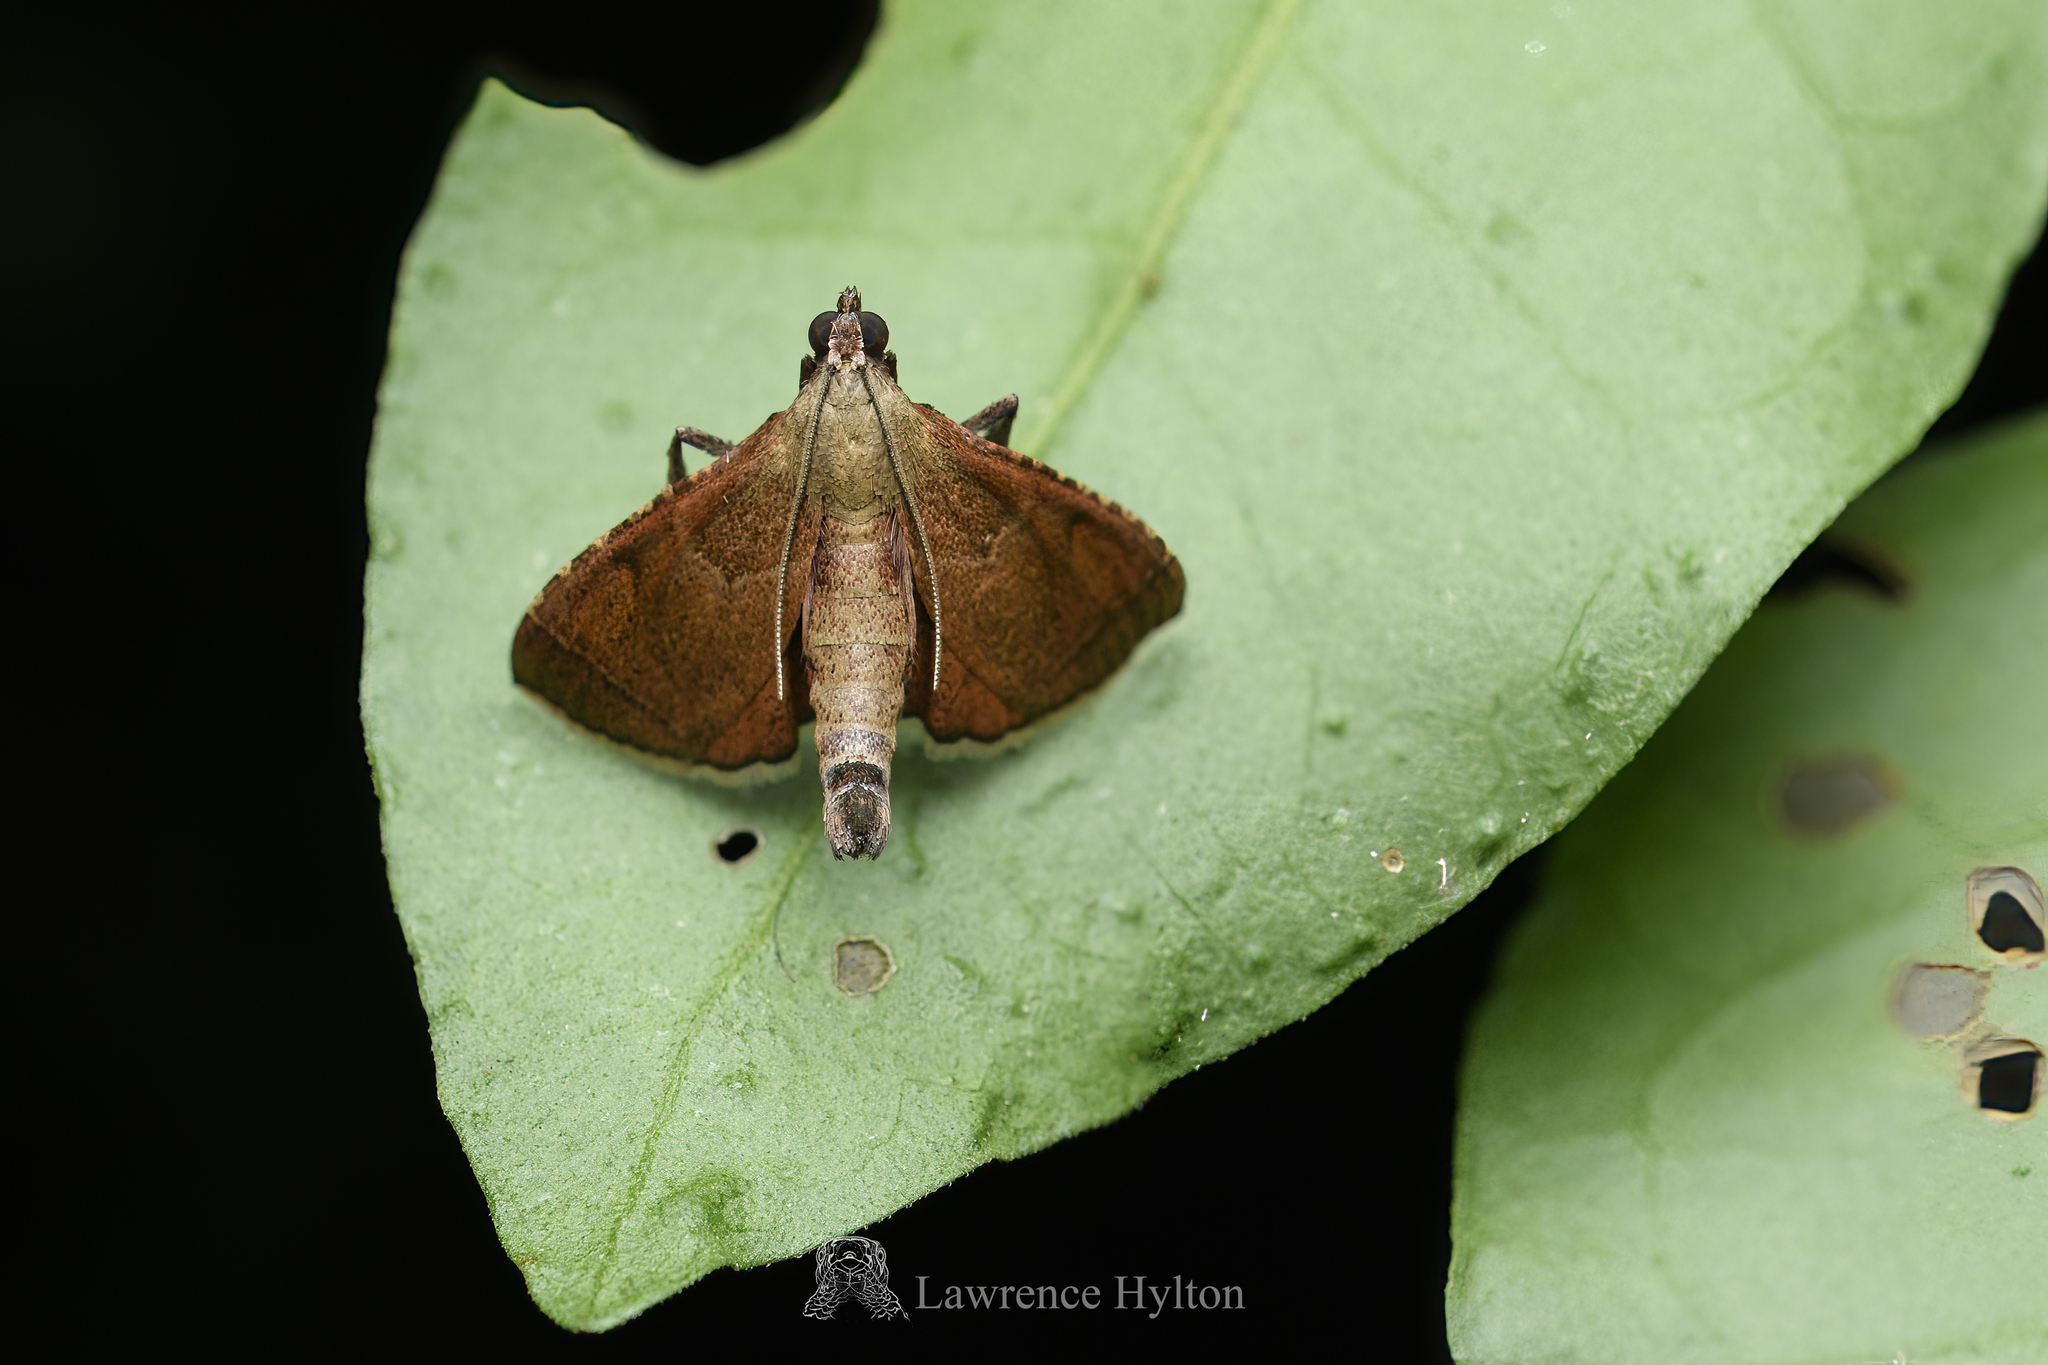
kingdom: Animalia
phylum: Arthropoda
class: Insecta
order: Lepidoptera
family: Pyralidae
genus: Endotricha
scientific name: Endotricha theonalis
